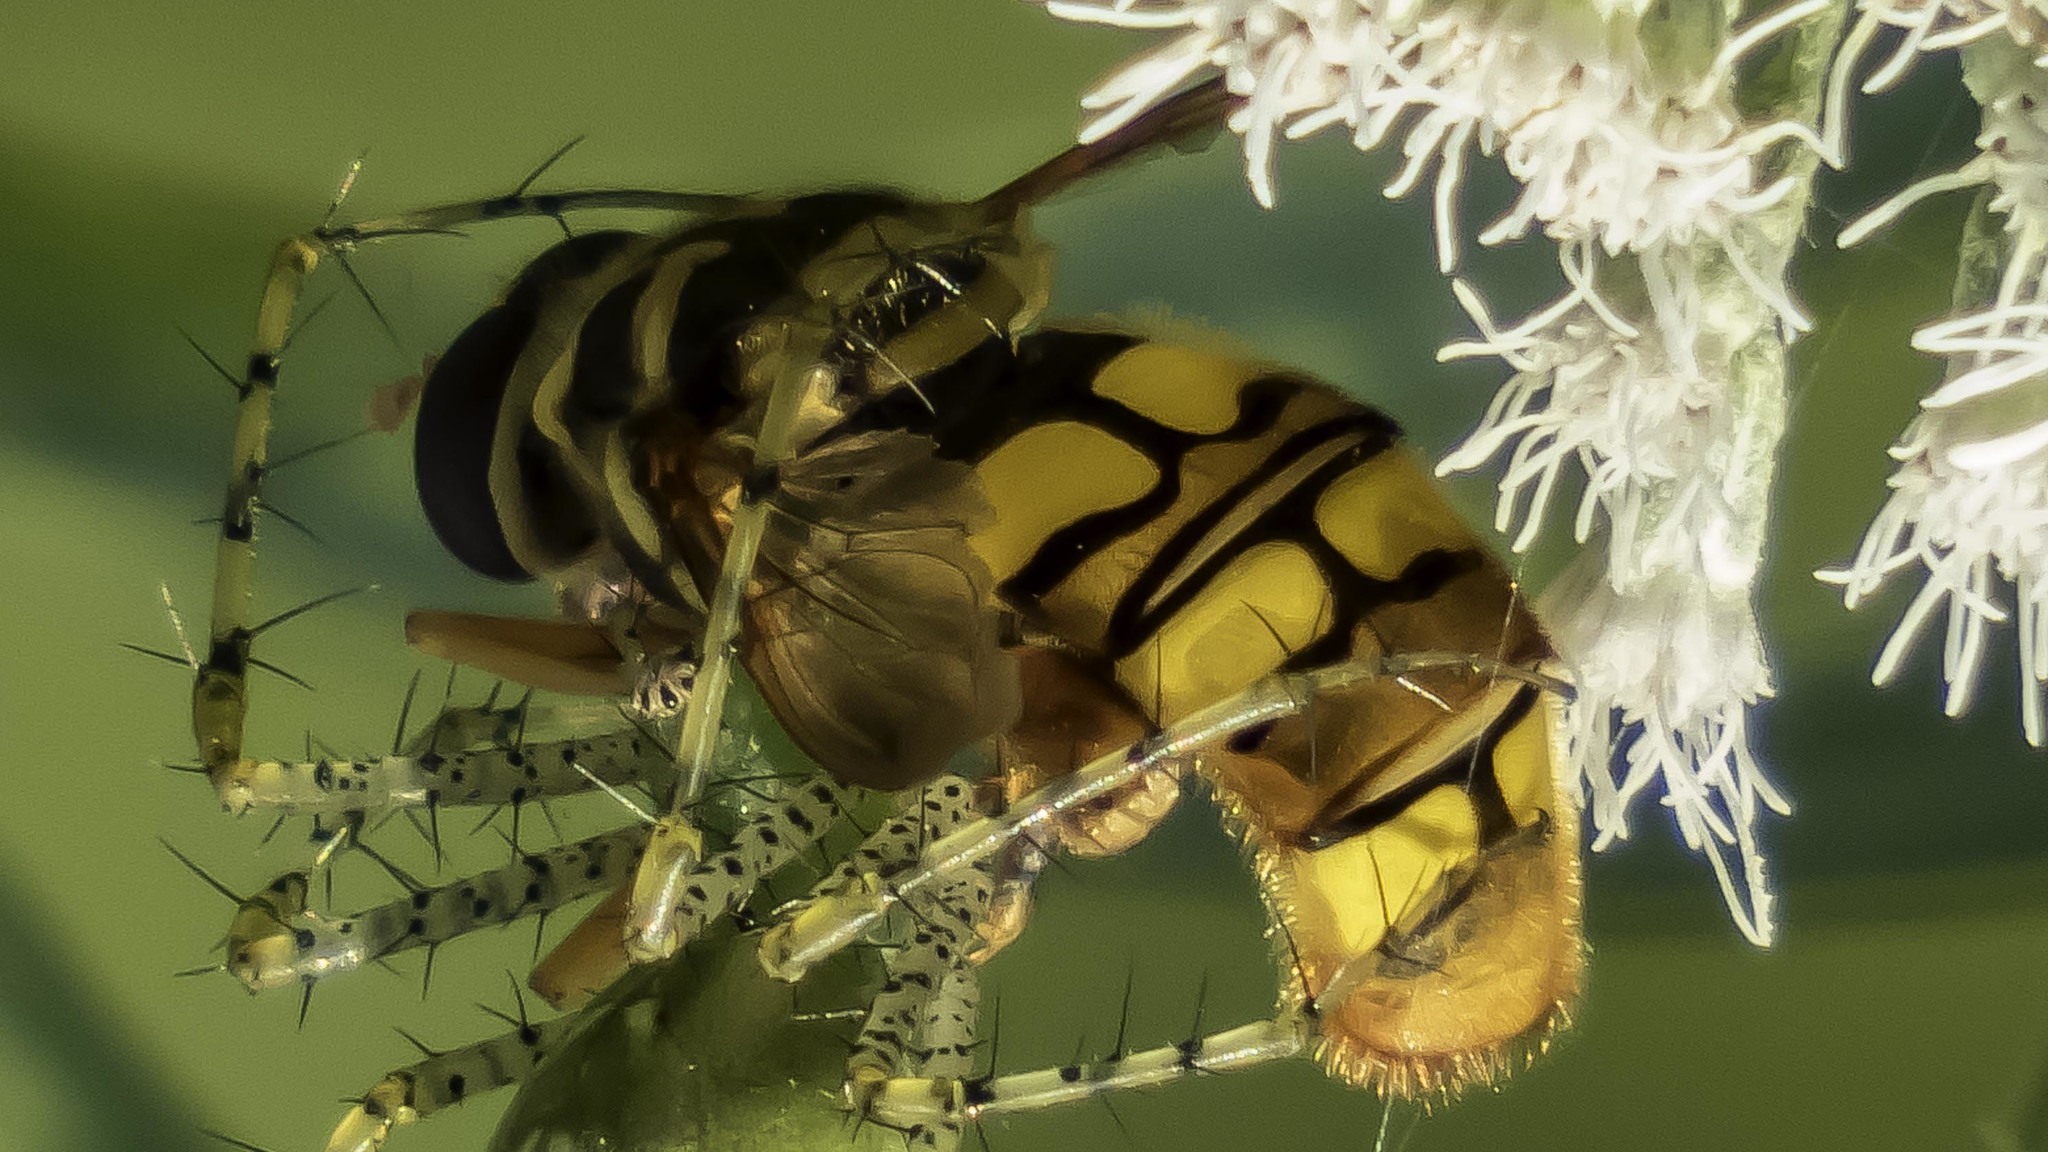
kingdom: Animalia
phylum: Arthropoda
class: Insecta
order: Diptera
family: Syrphidae
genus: Milesia
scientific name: Milesia virginiensis
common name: Virginia giant
